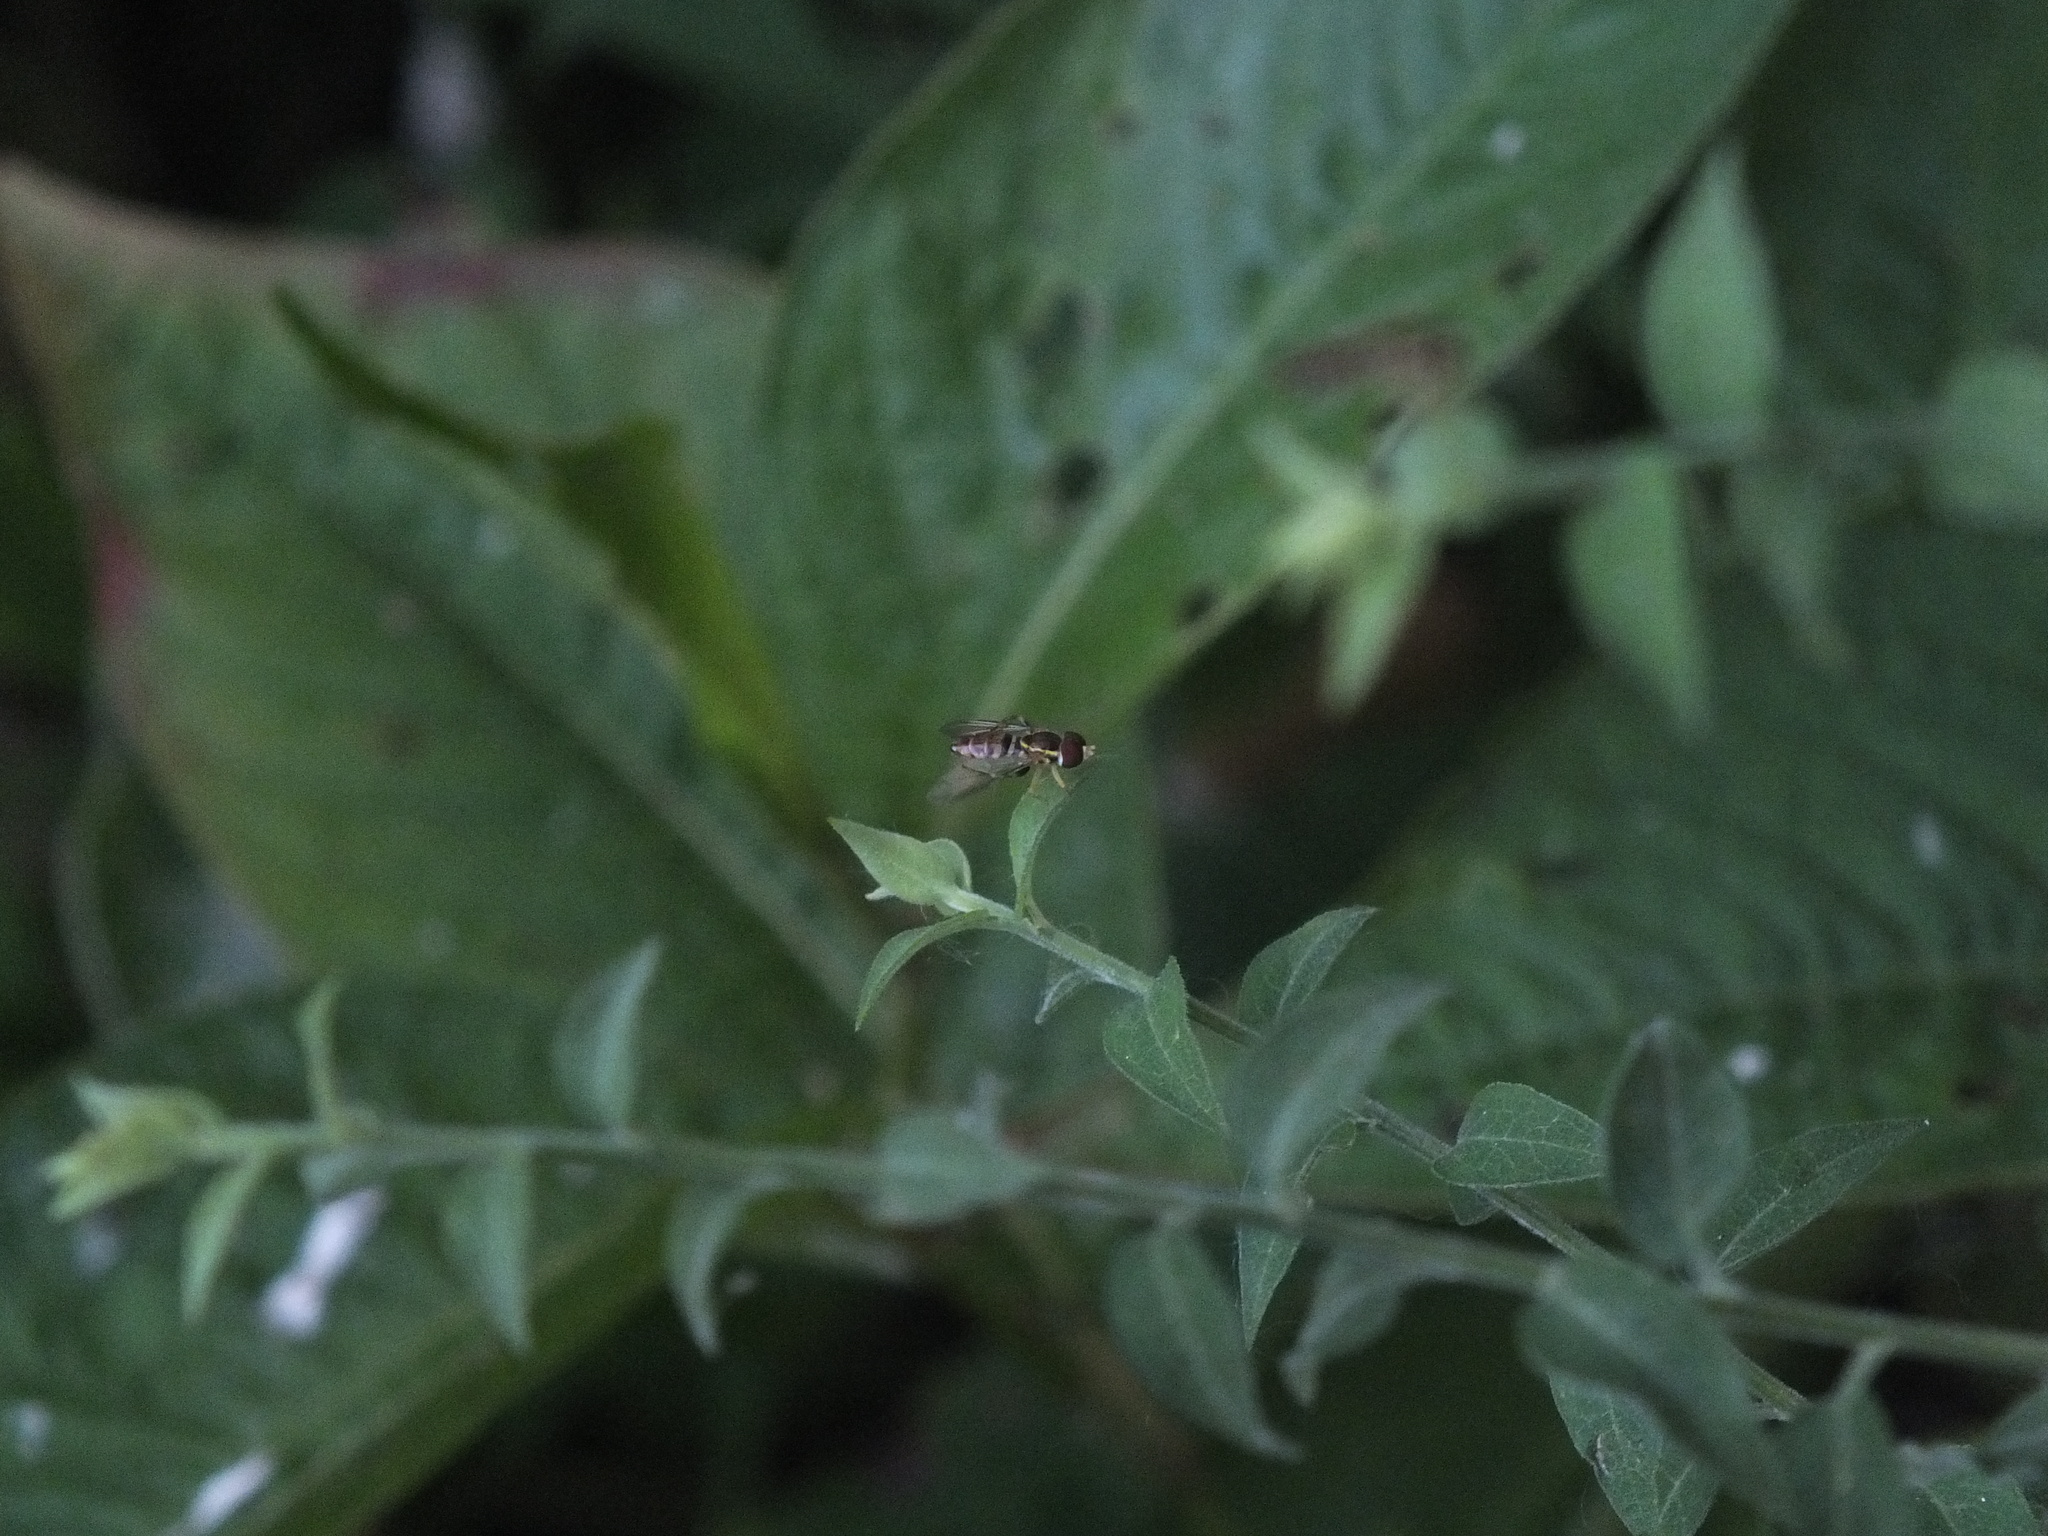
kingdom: Animalia
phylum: Arthropoda
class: Insecta
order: Diptera
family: Syrphidae
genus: Toxomerus
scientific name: Toxomerus geminatus
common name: Eastern calligrapher
